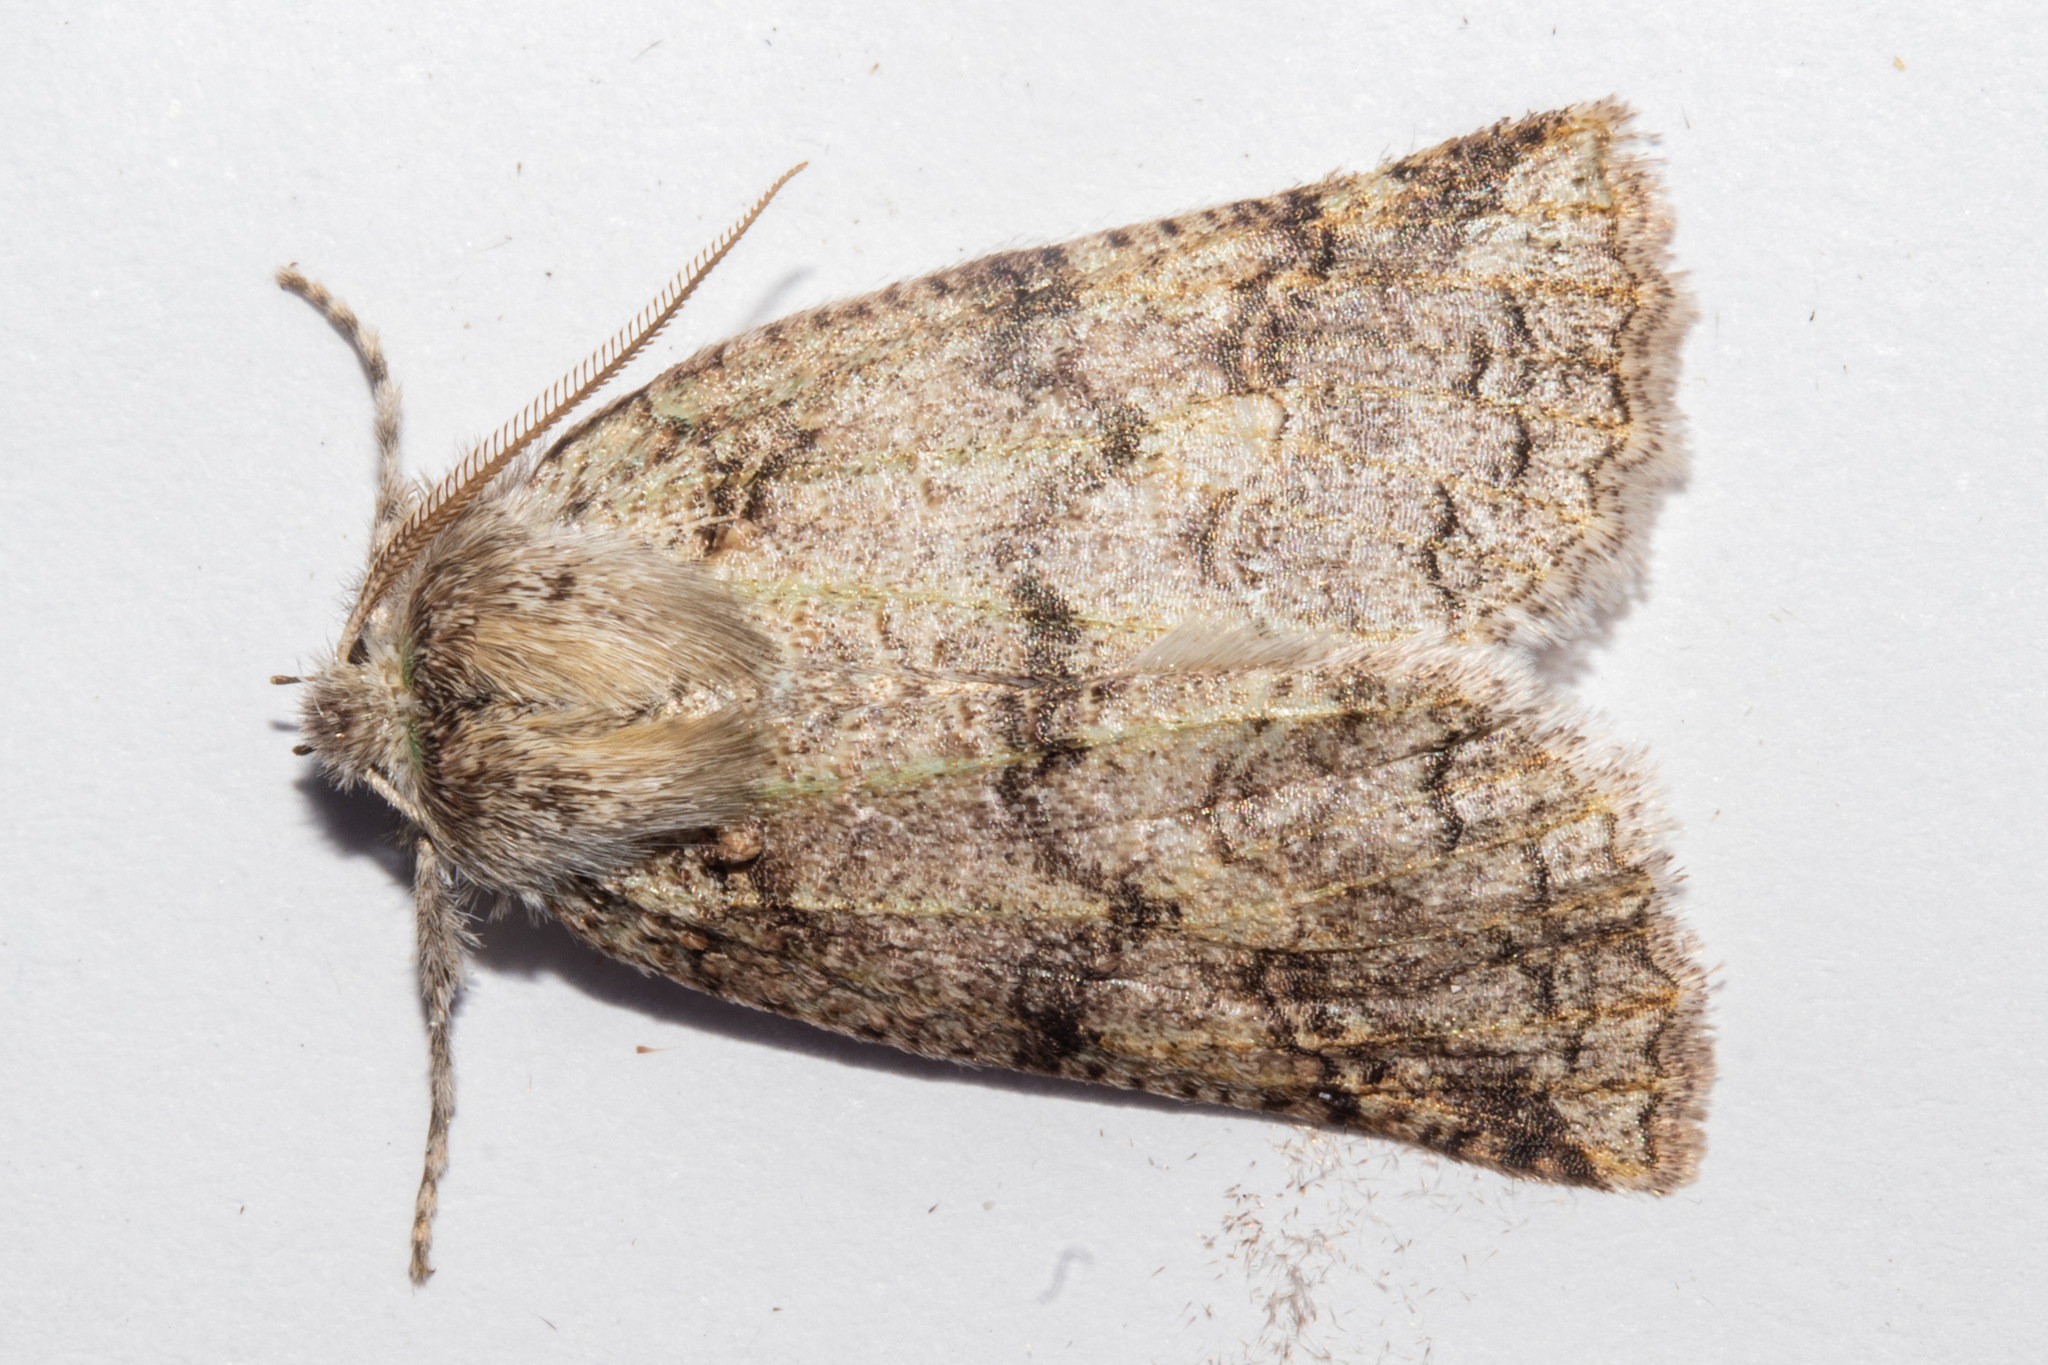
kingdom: Animalia
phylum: Arthropoda
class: Insecta
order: Lepidoptera
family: Geometridae
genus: Declana
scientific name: Declana floccosa
